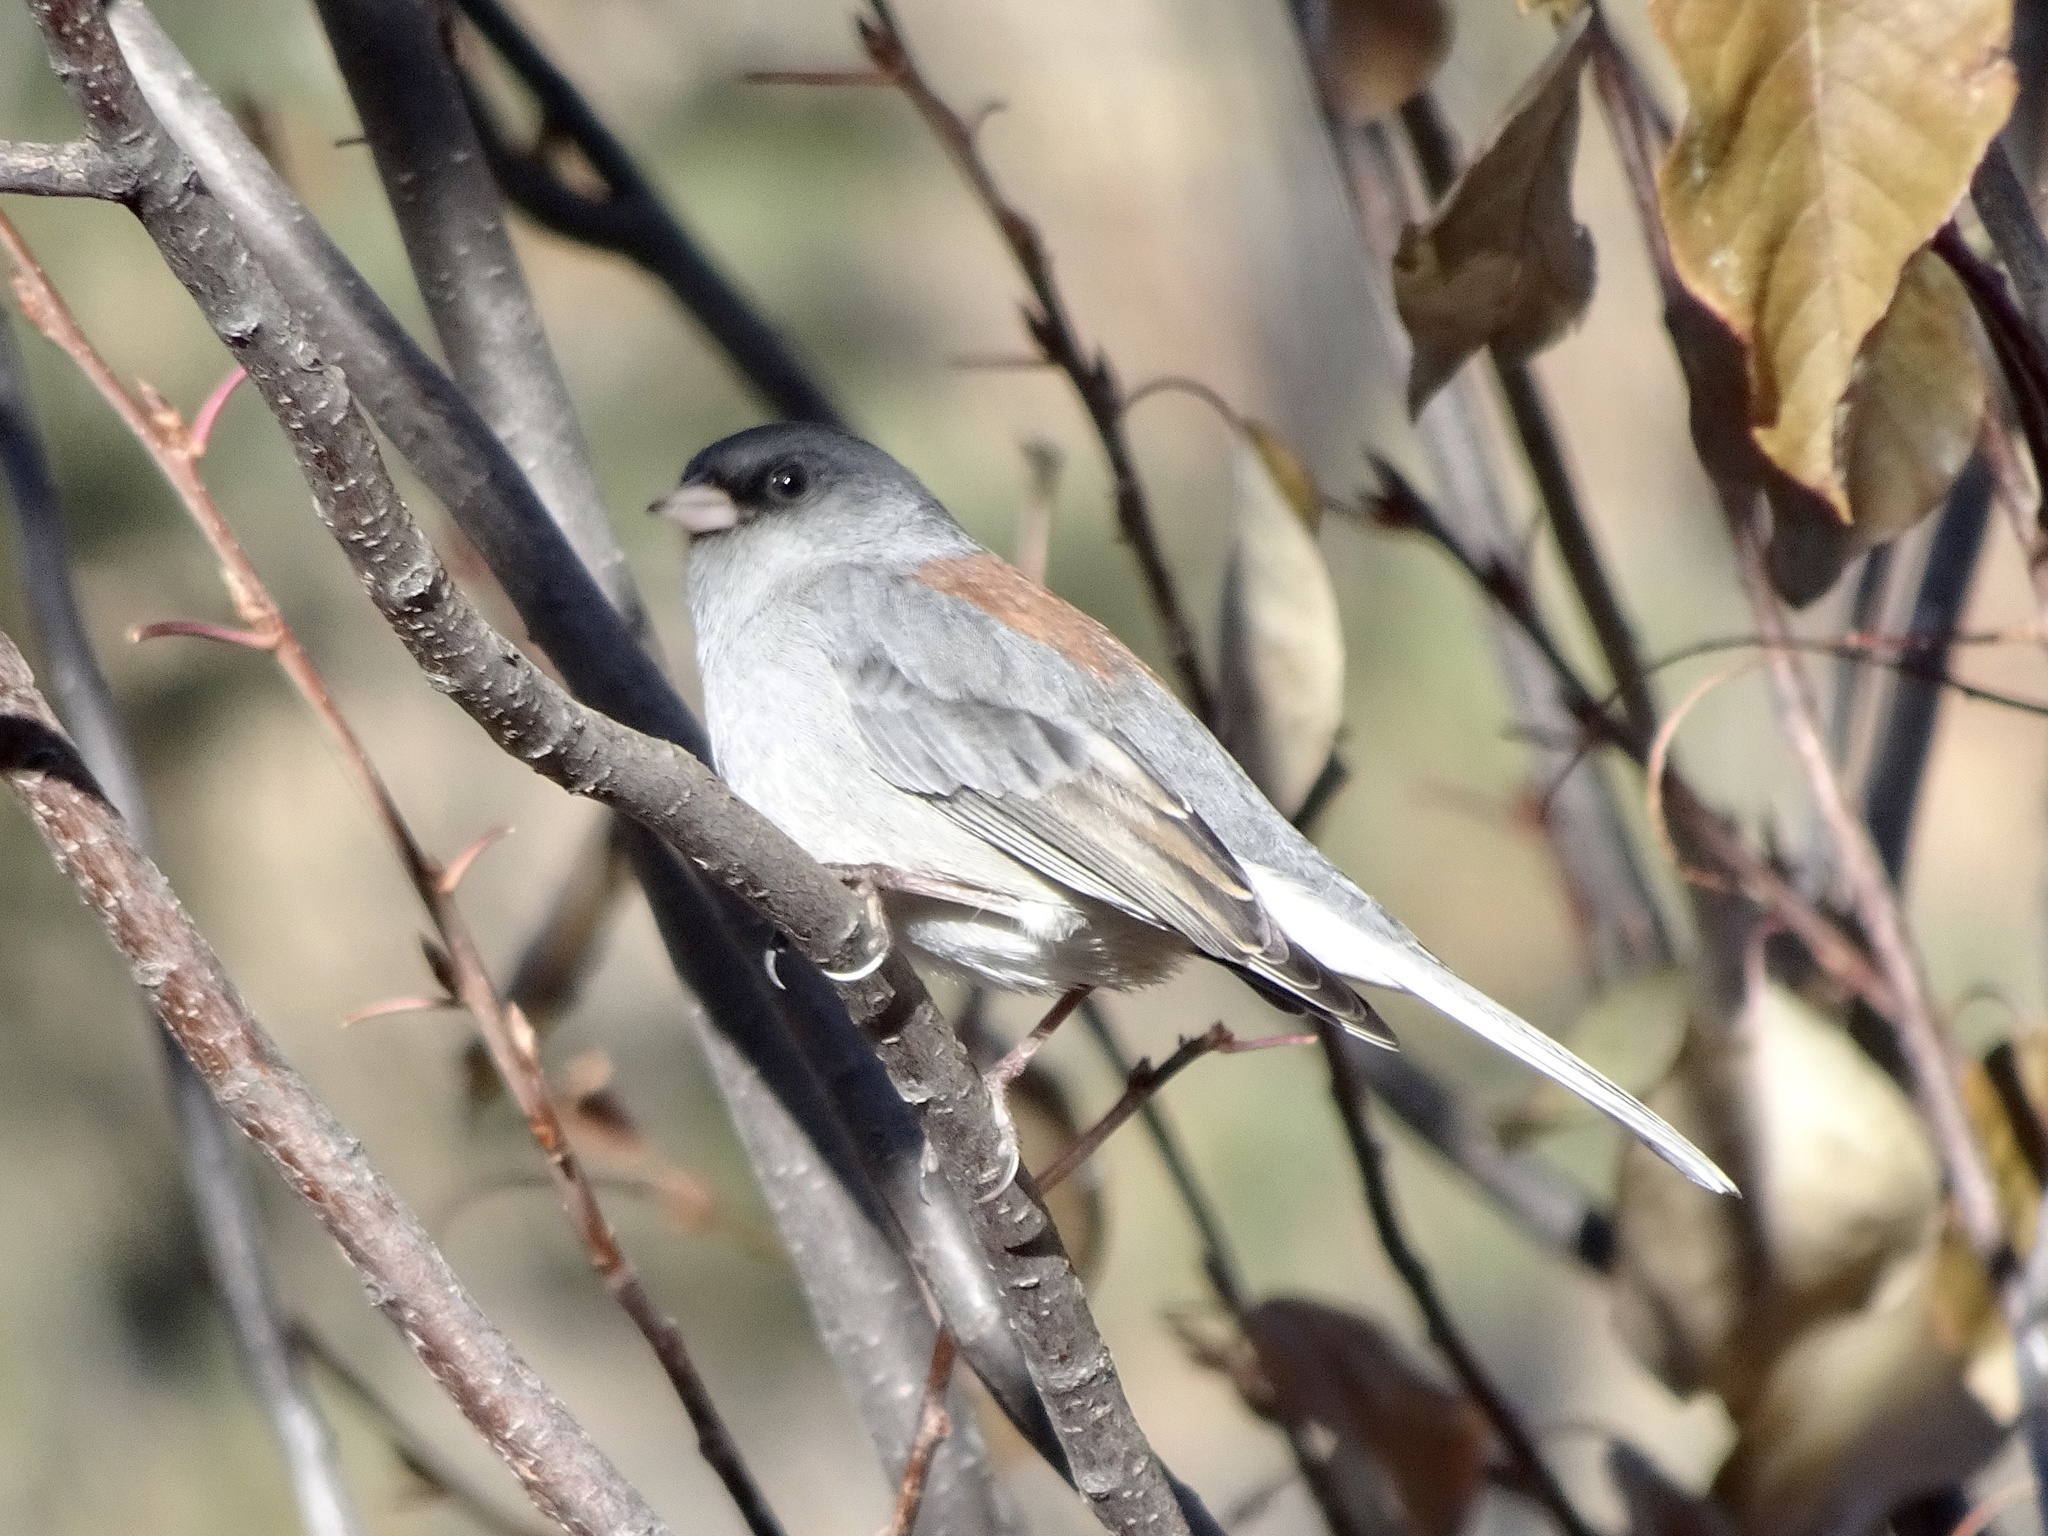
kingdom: Animalia
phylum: Chordata
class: Aves
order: Passeriformes
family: Passerellidae
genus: Junco
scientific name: Junco hyemalis
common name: Dark-eyed junco
